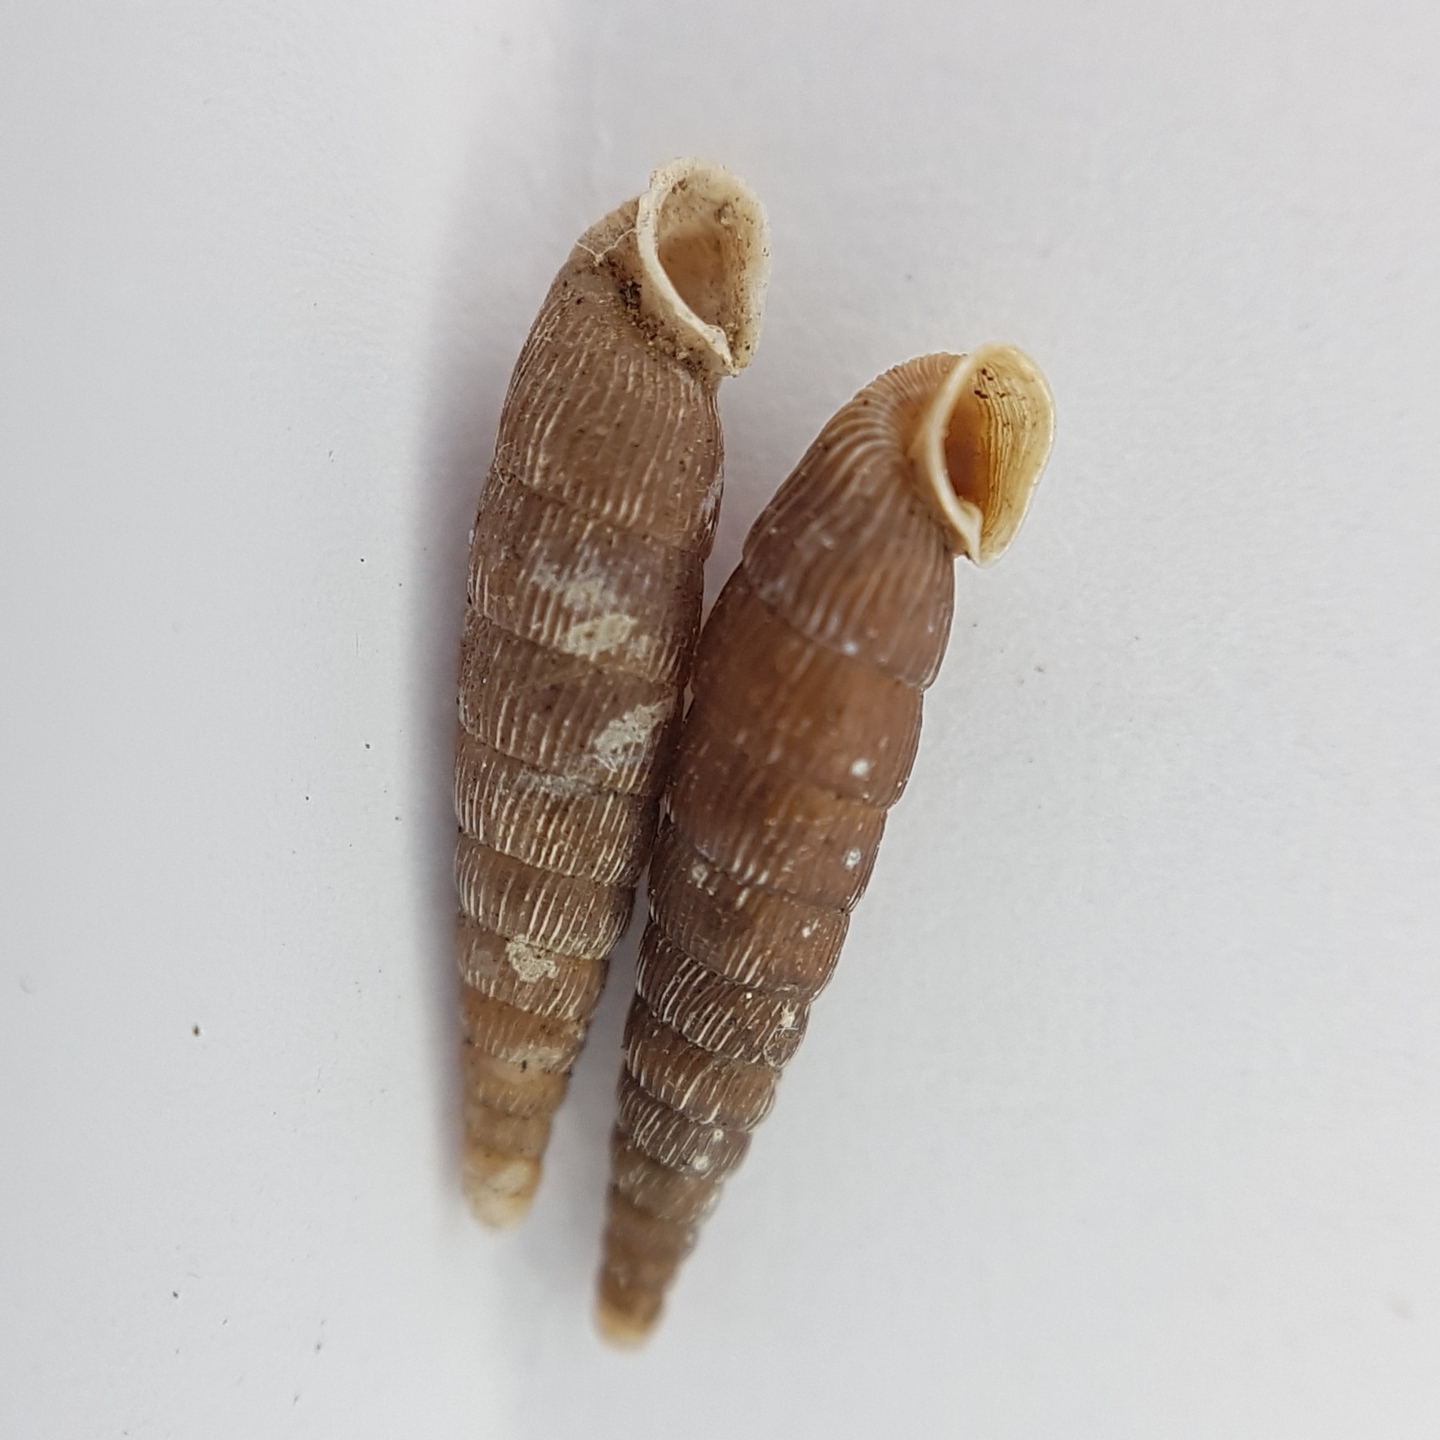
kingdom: Animalia
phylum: Mollusca
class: Gastropoda
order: Stylommatophora
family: Clausiliidae
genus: Clausilia
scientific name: Clausilia bidentata
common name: Two-toothed door snail
